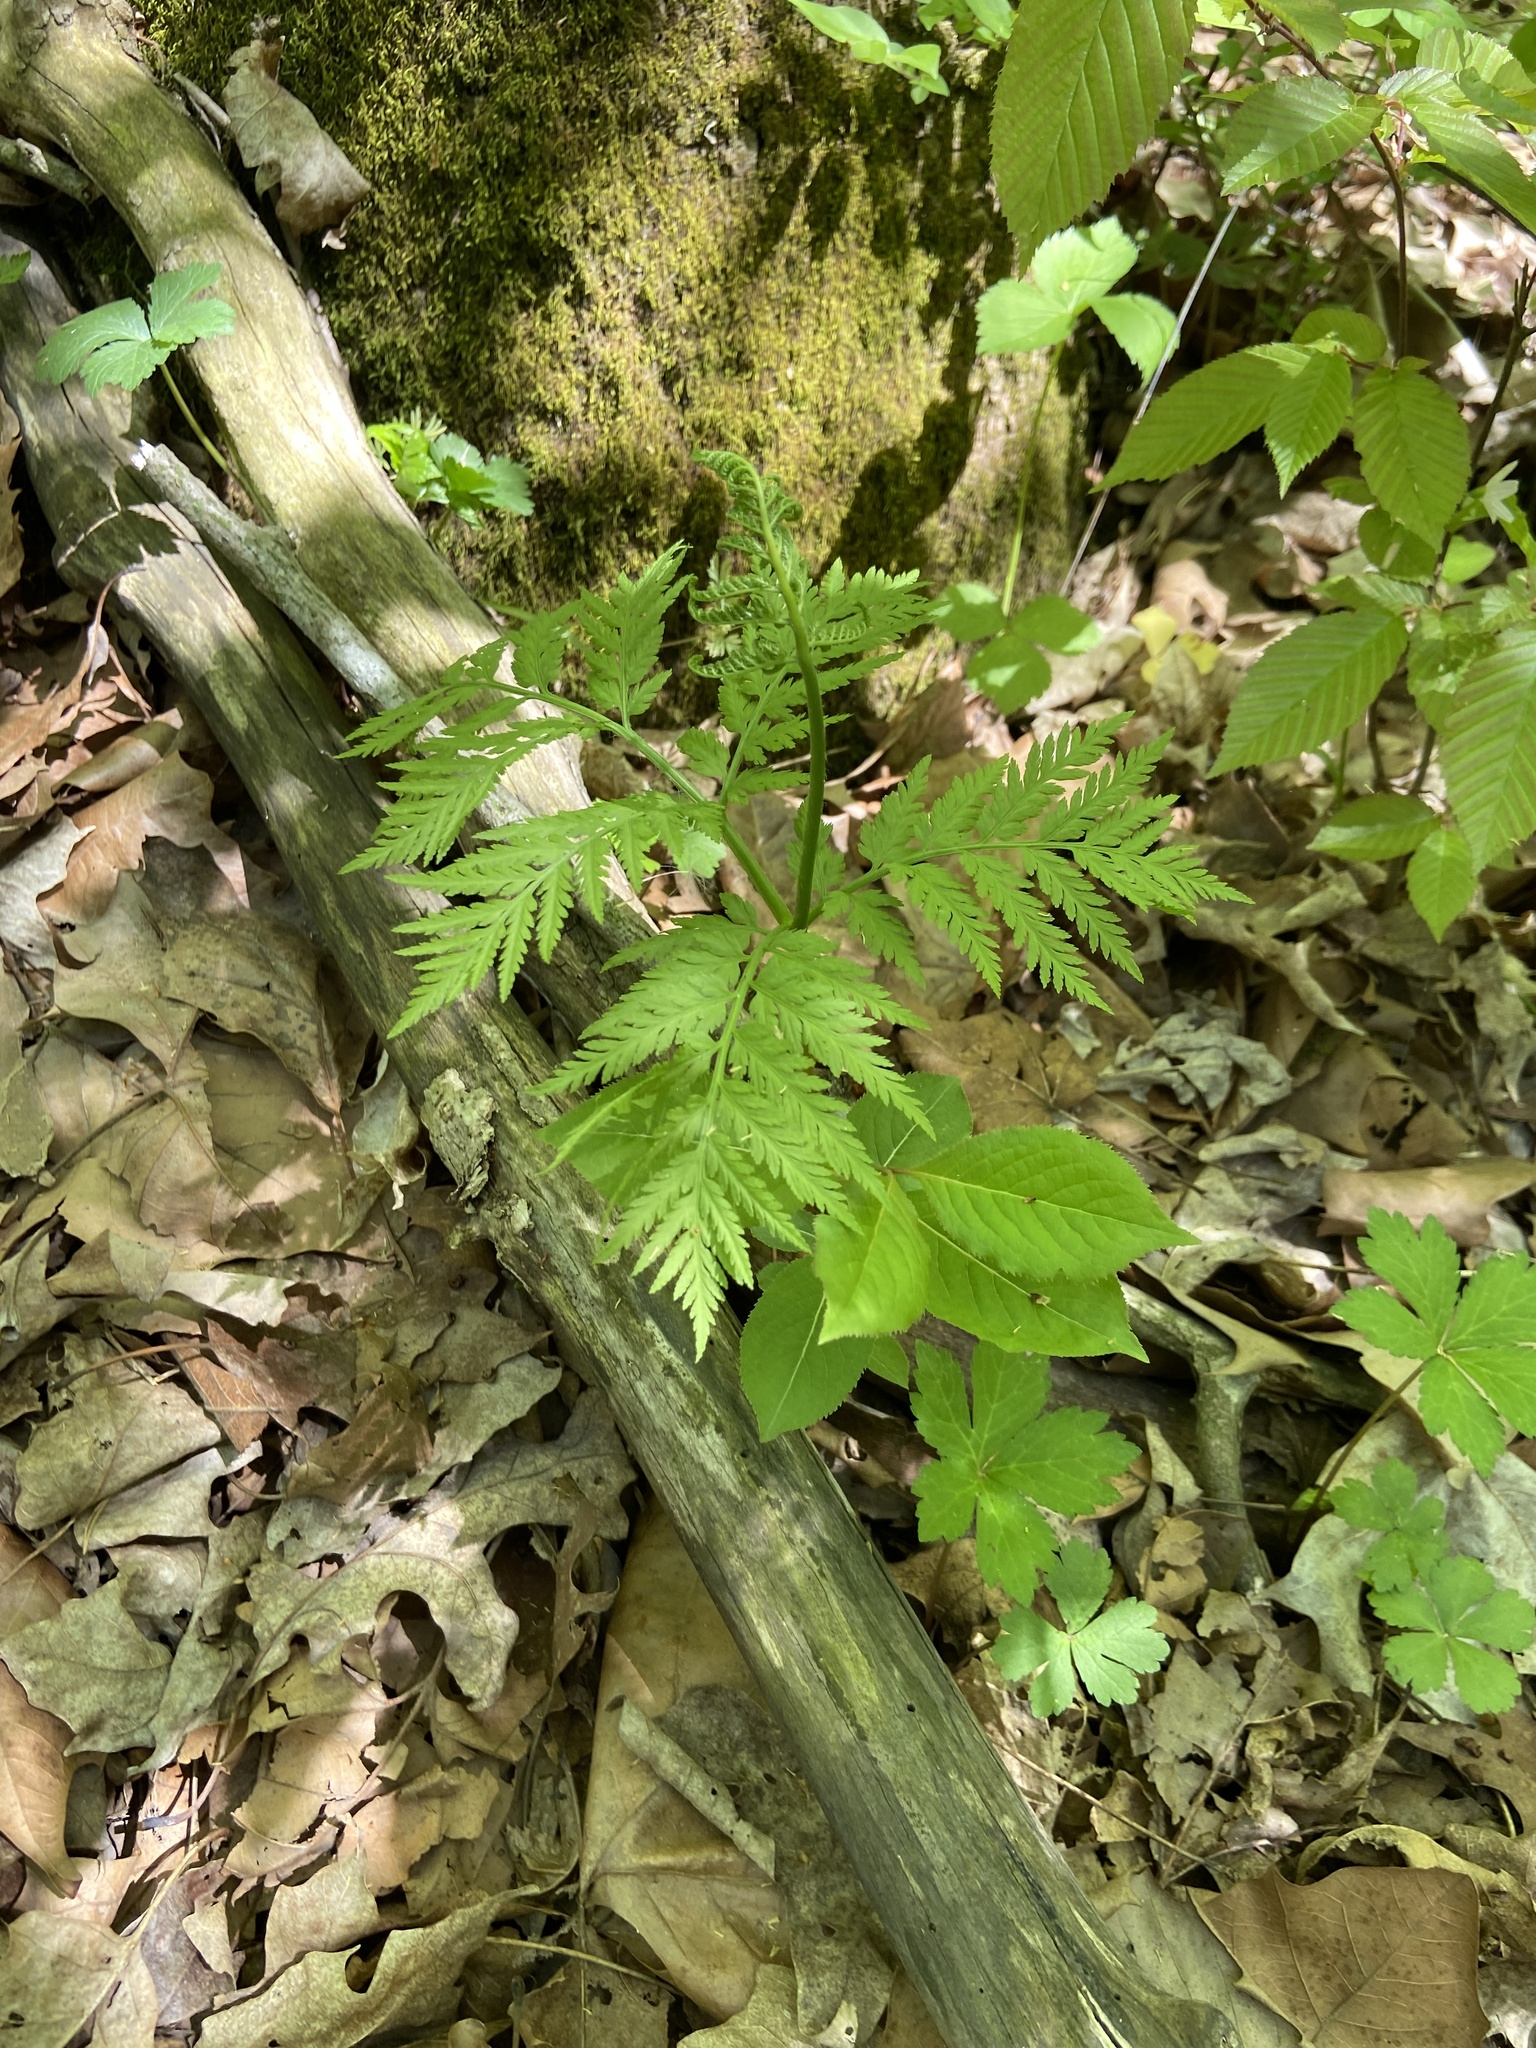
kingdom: Plantae
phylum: Tracheophyta
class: Polypodiopsida
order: Ophioglossales
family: Ophioglossaceae
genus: Botrypus
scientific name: Botrypus virginianus
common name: Common grapefern
